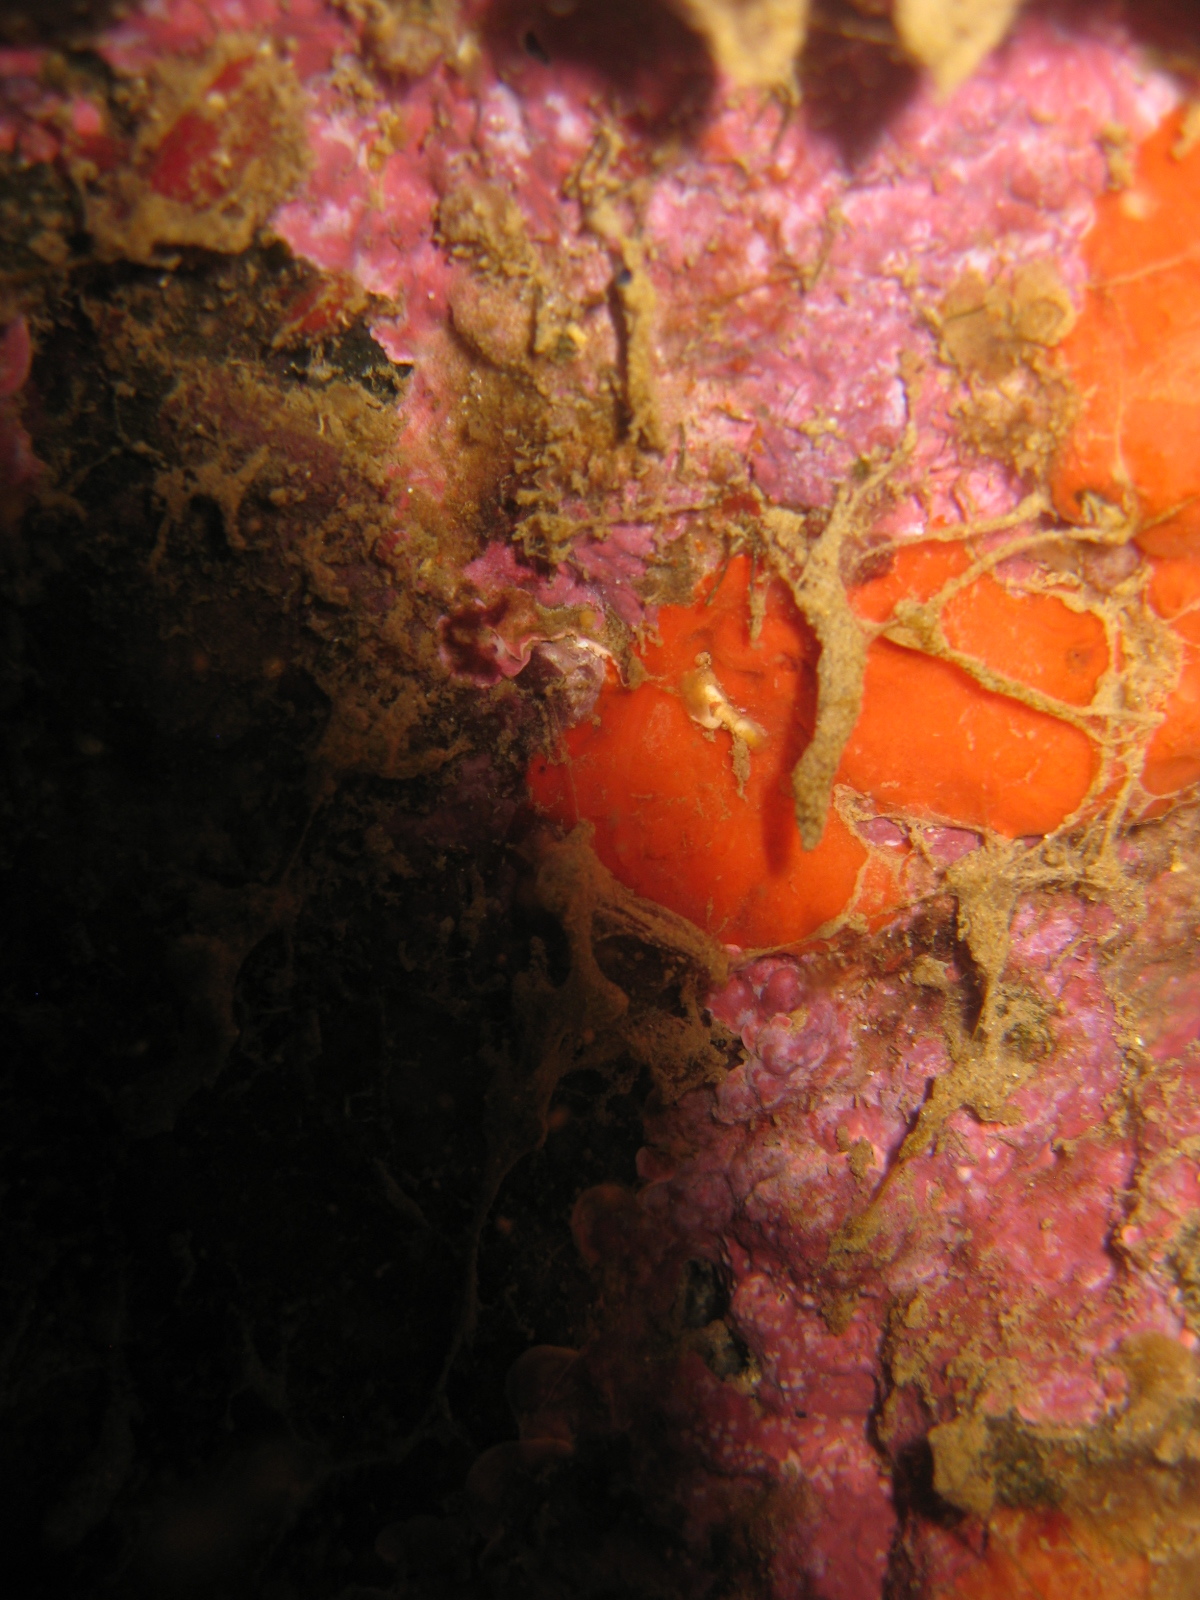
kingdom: Animalia
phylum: Porifera
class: Demospongiae
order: Poecilosclerida
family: Crellidae
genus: Crella
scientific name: Crella incrustans
